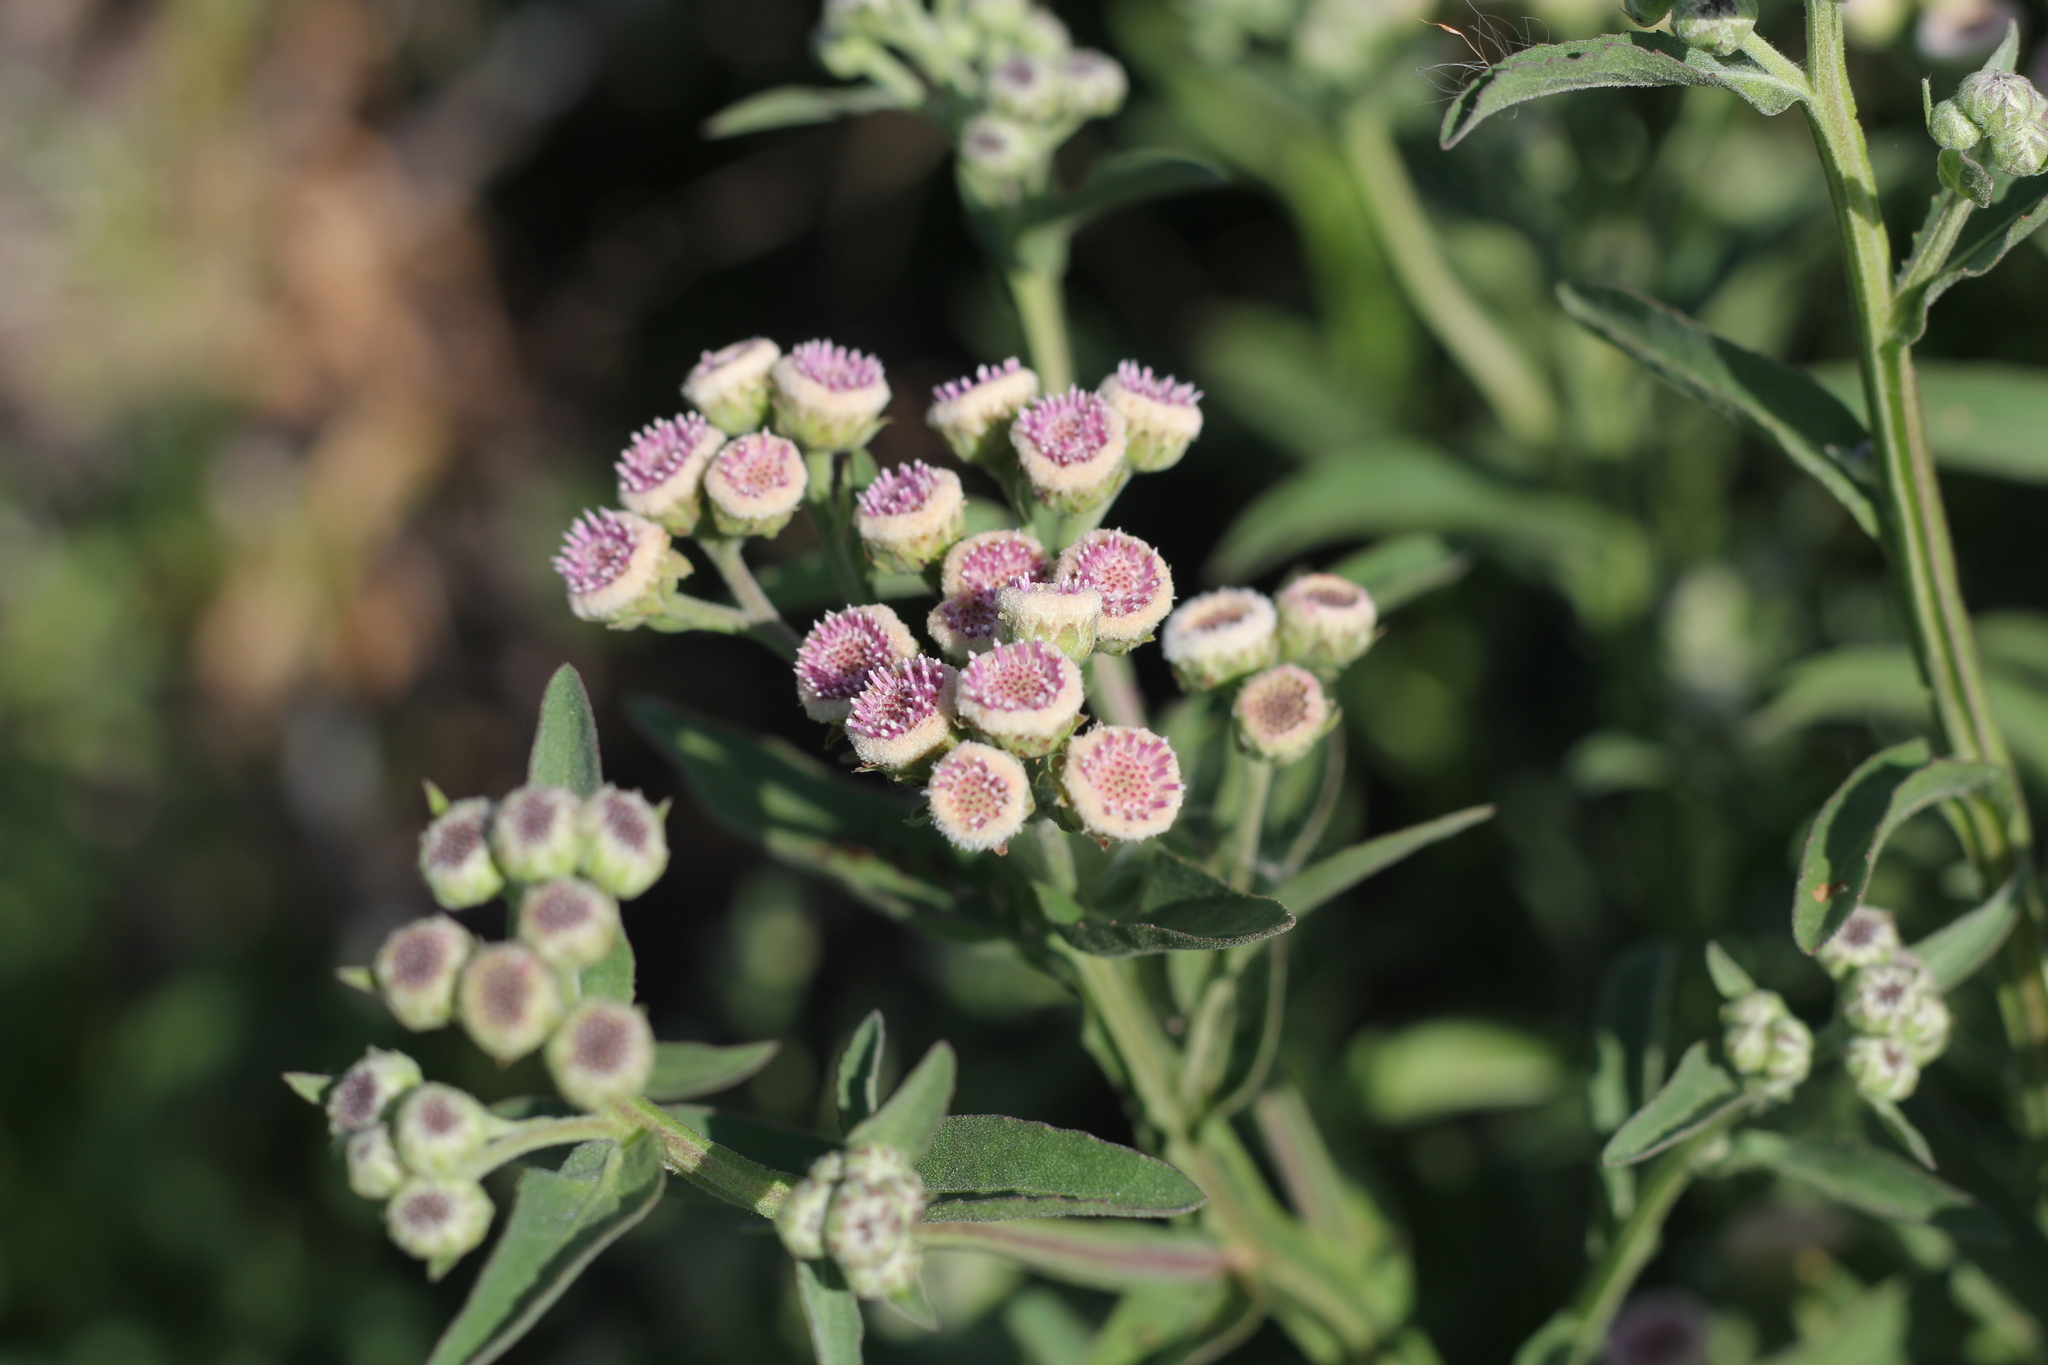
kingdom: Plantae
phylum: Tracheophyta
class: Magnoliopsida
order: Asterales
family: Asteraceae
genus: Pluchea
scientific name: Pluchea sagittalis
